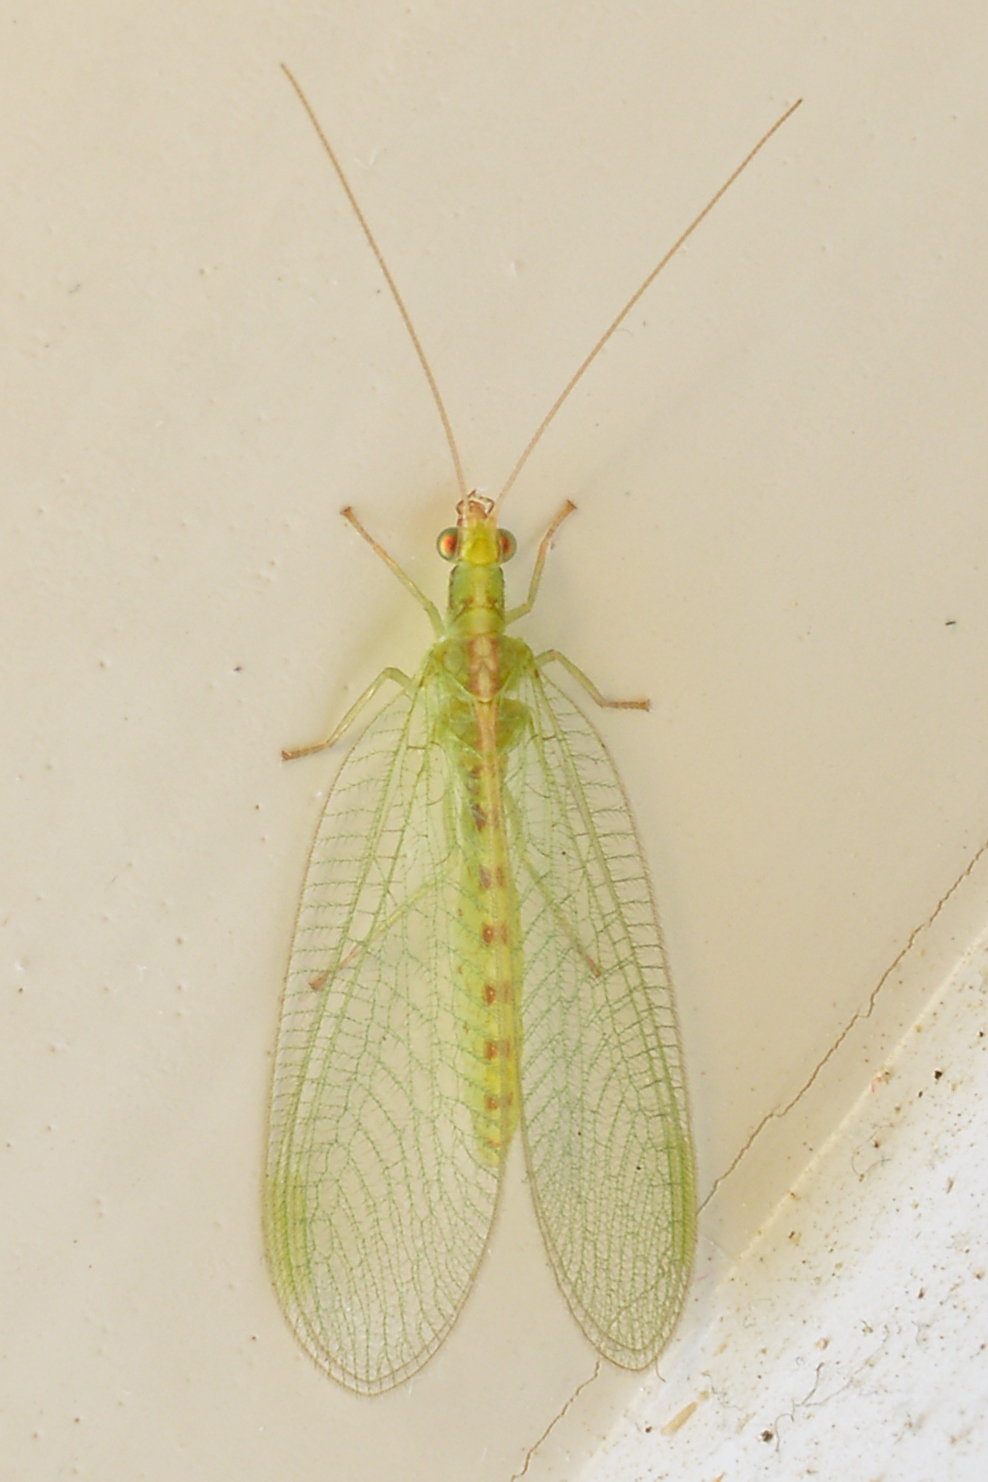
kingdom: Animalia
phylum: Arthropoda
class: Insecta
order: Neuroptera
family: Chrysopidae
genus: Chrysoperla
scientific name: Chrysoperla
